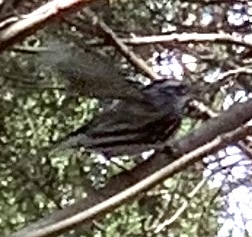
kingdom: Animalia
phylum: Chordata
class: Aves
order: Passeriformes
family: Parulidae
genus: Mniotilta
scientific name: Mniotilta varia
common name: Black-and-white warbler
